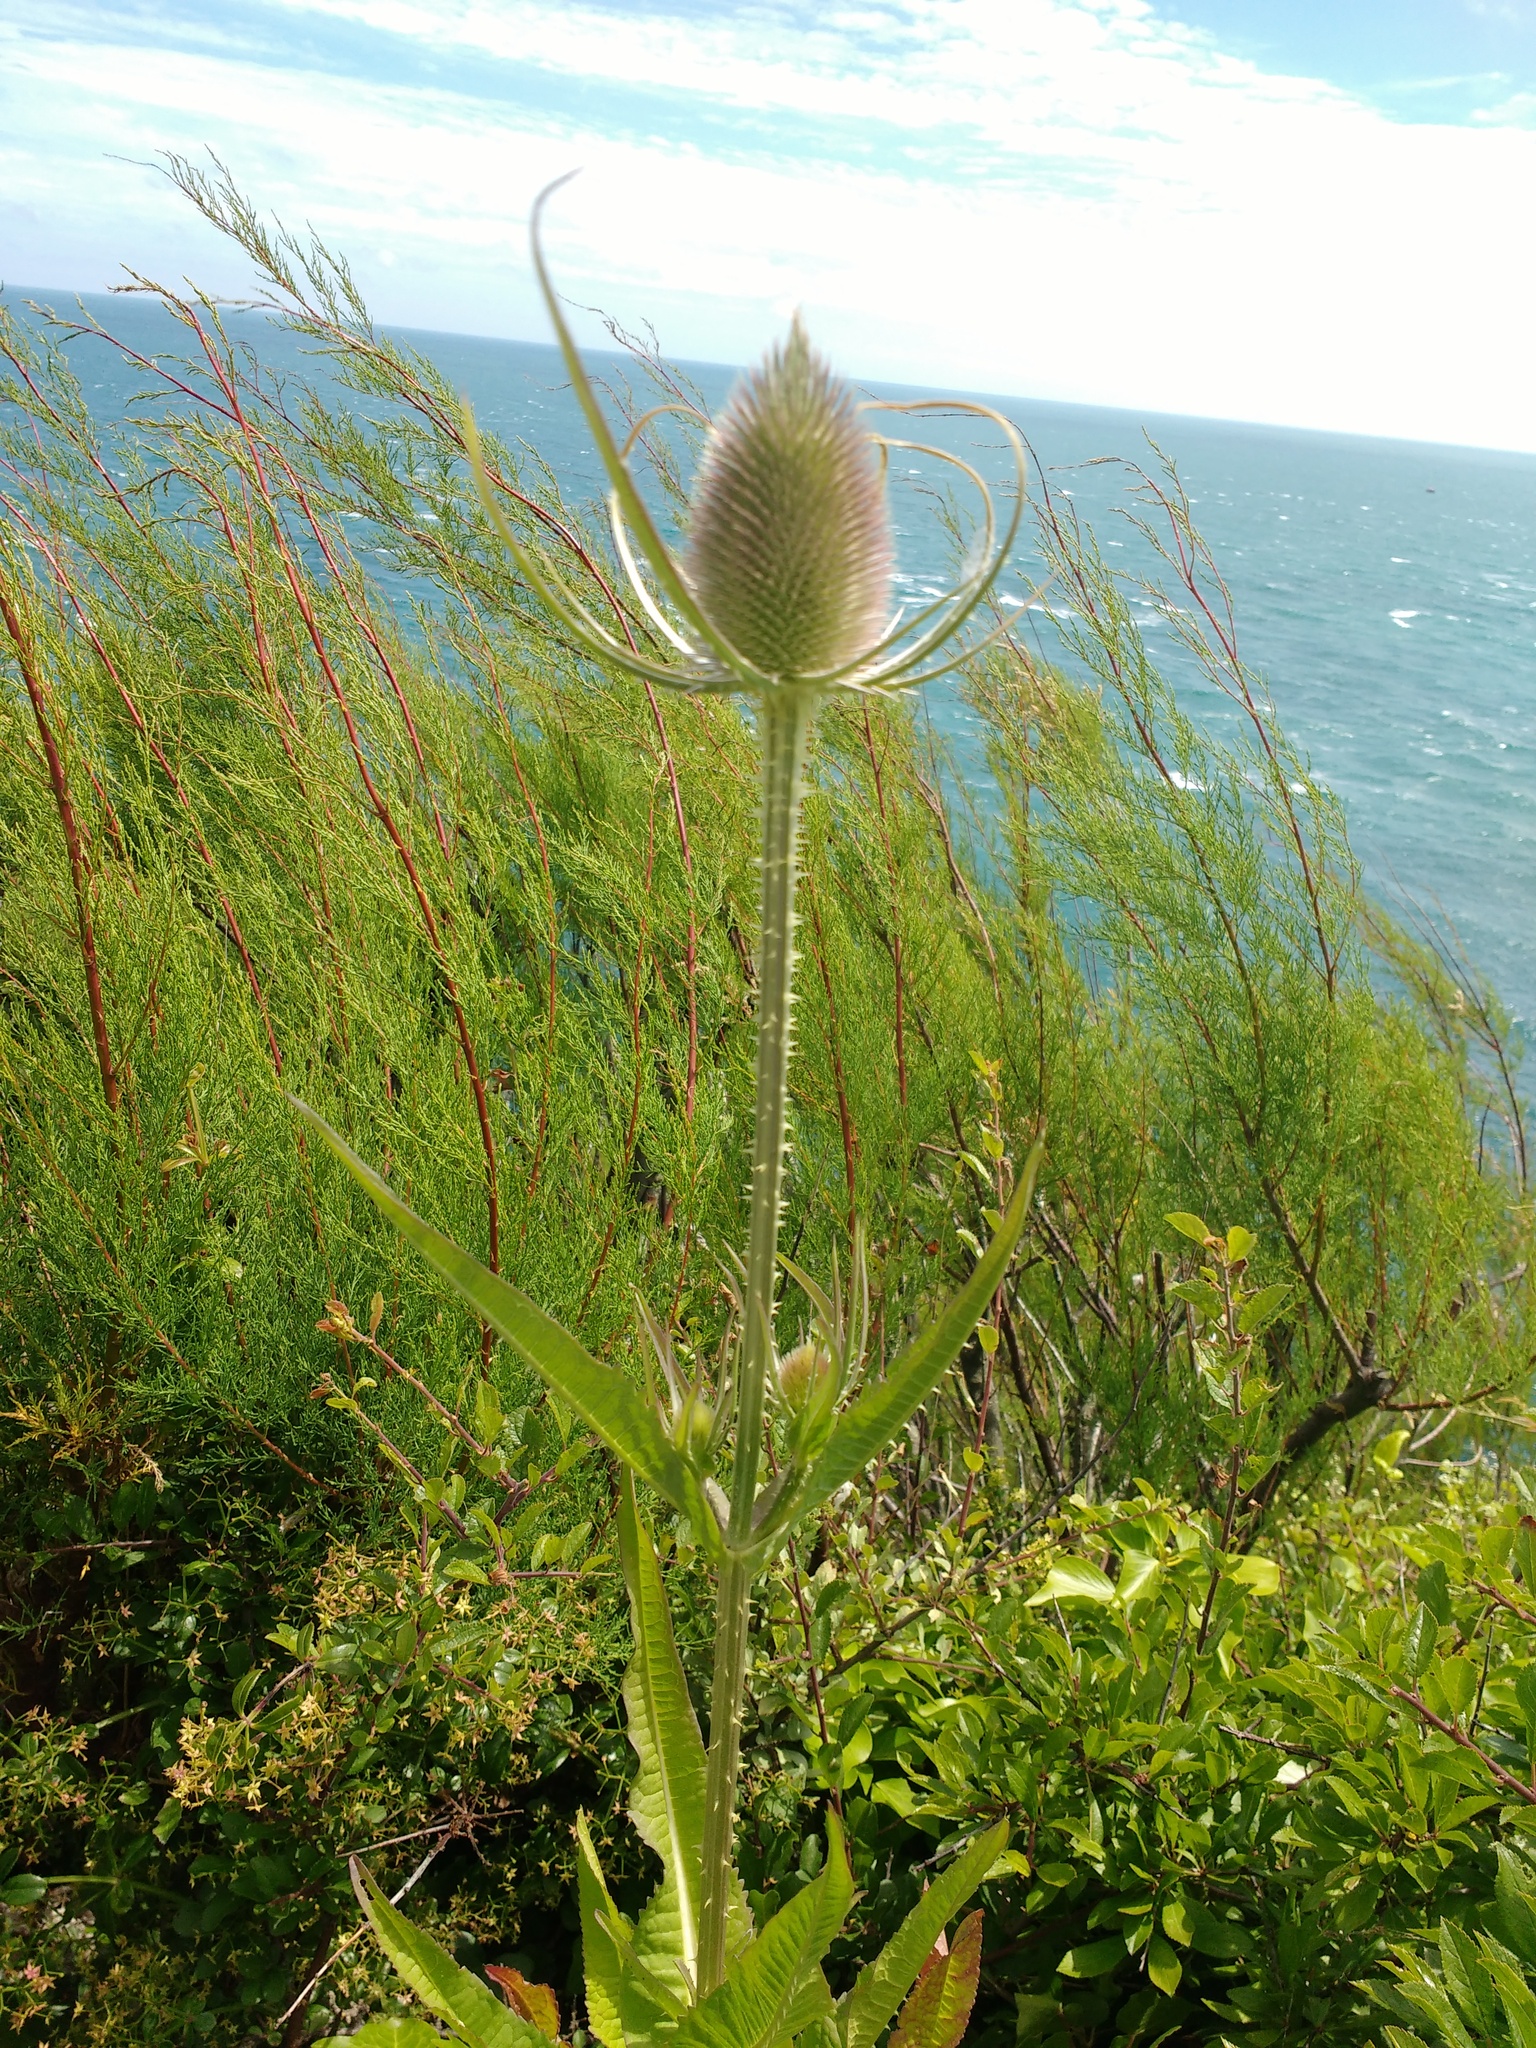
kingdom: Plantae
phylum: Tracheophyta
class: Magnoliopsida
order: Dipsacales
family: Caprifoliaceae
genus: Dipsacus
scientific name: Dipsacus fullonum
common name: Teasel
